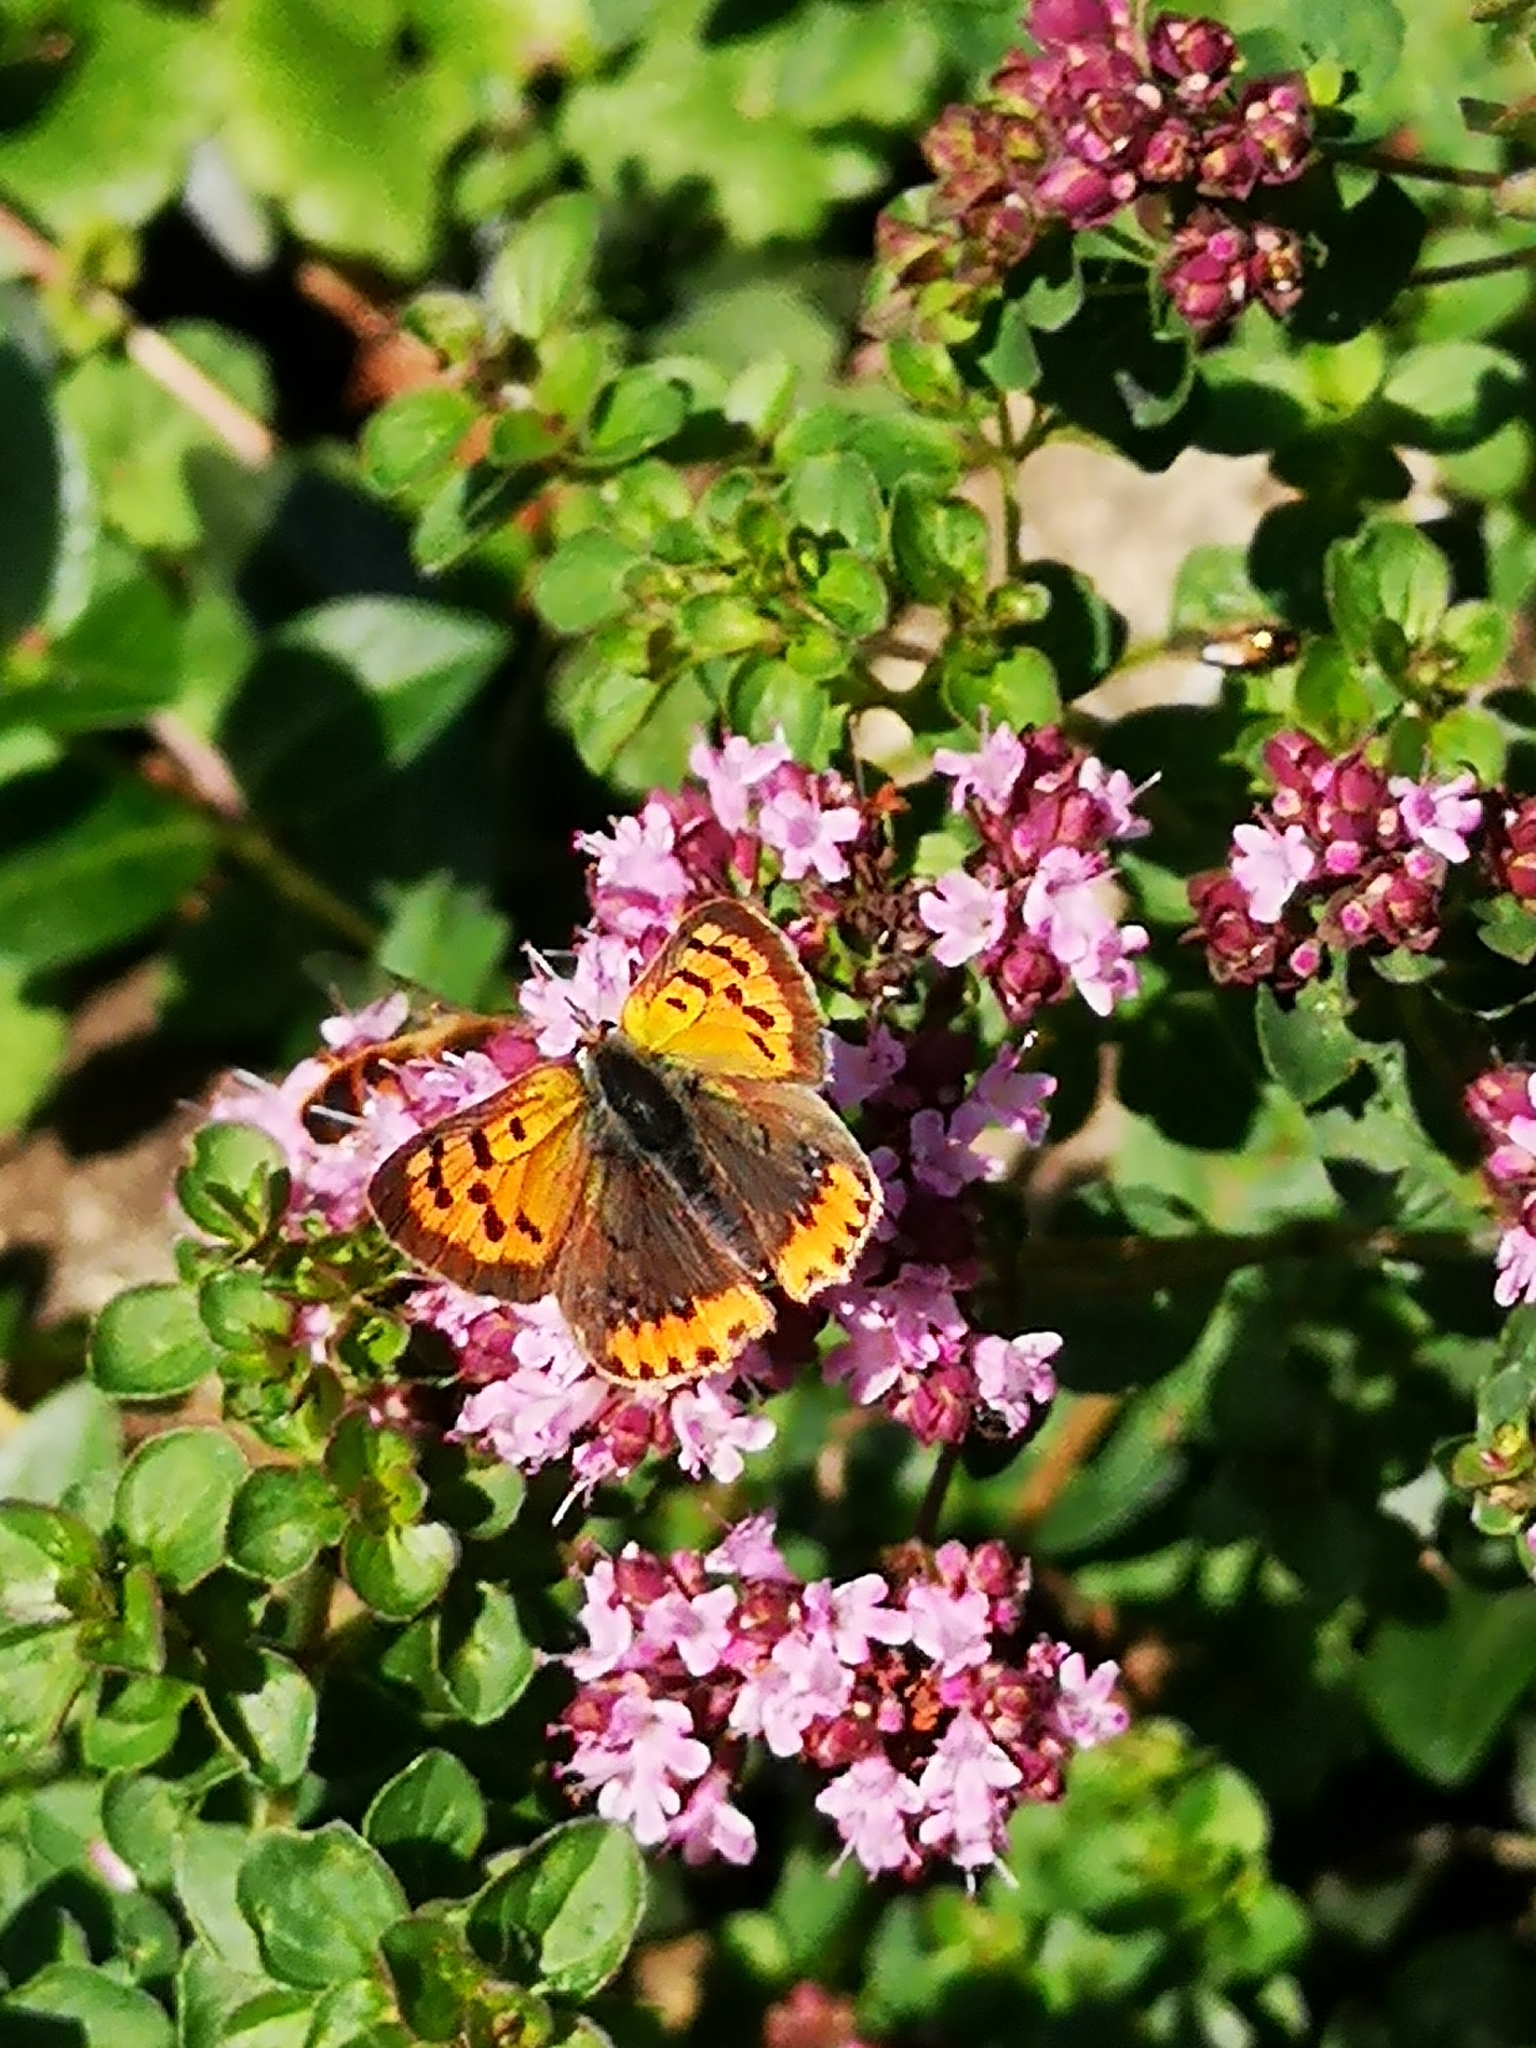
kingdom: Animalia
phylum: Arthropoda
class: Insecta
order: Lepidoptera
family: Lycaenidae
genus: Lycaena
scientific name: Lycaena phlaeas
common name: Small copper
